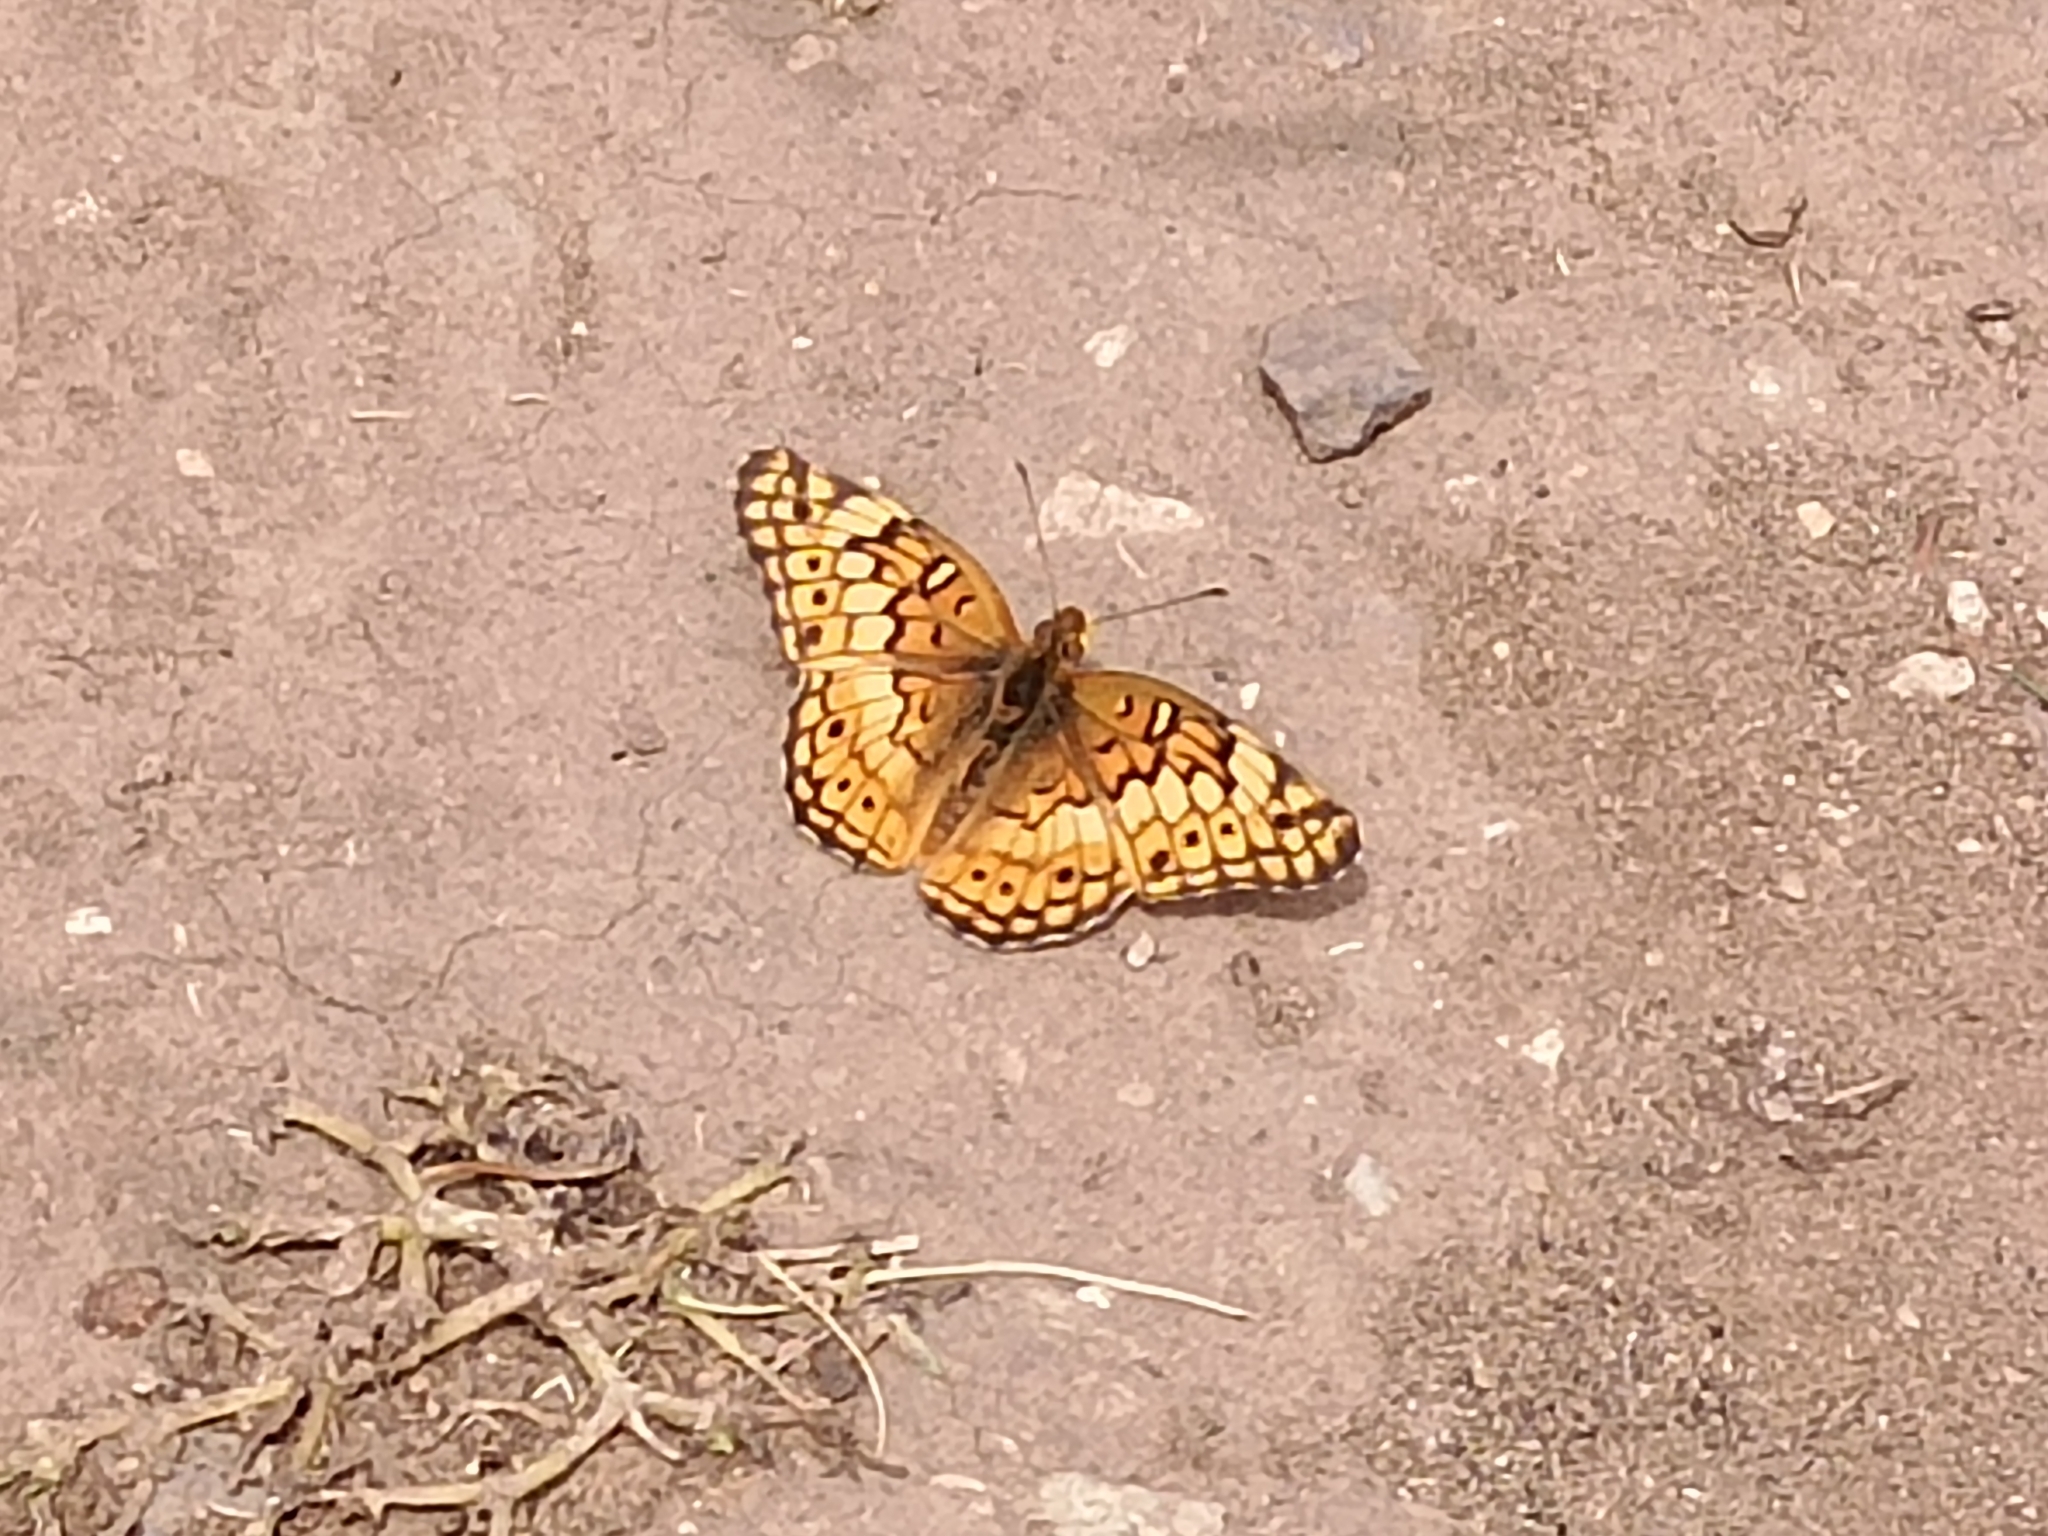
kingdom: Animalia
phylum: Arthropoda
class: Insecta
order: Lepidoptera
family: Nymphalidae
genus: Euptoieta
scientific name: Euptoieta claudia
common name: Variegated fritillary
